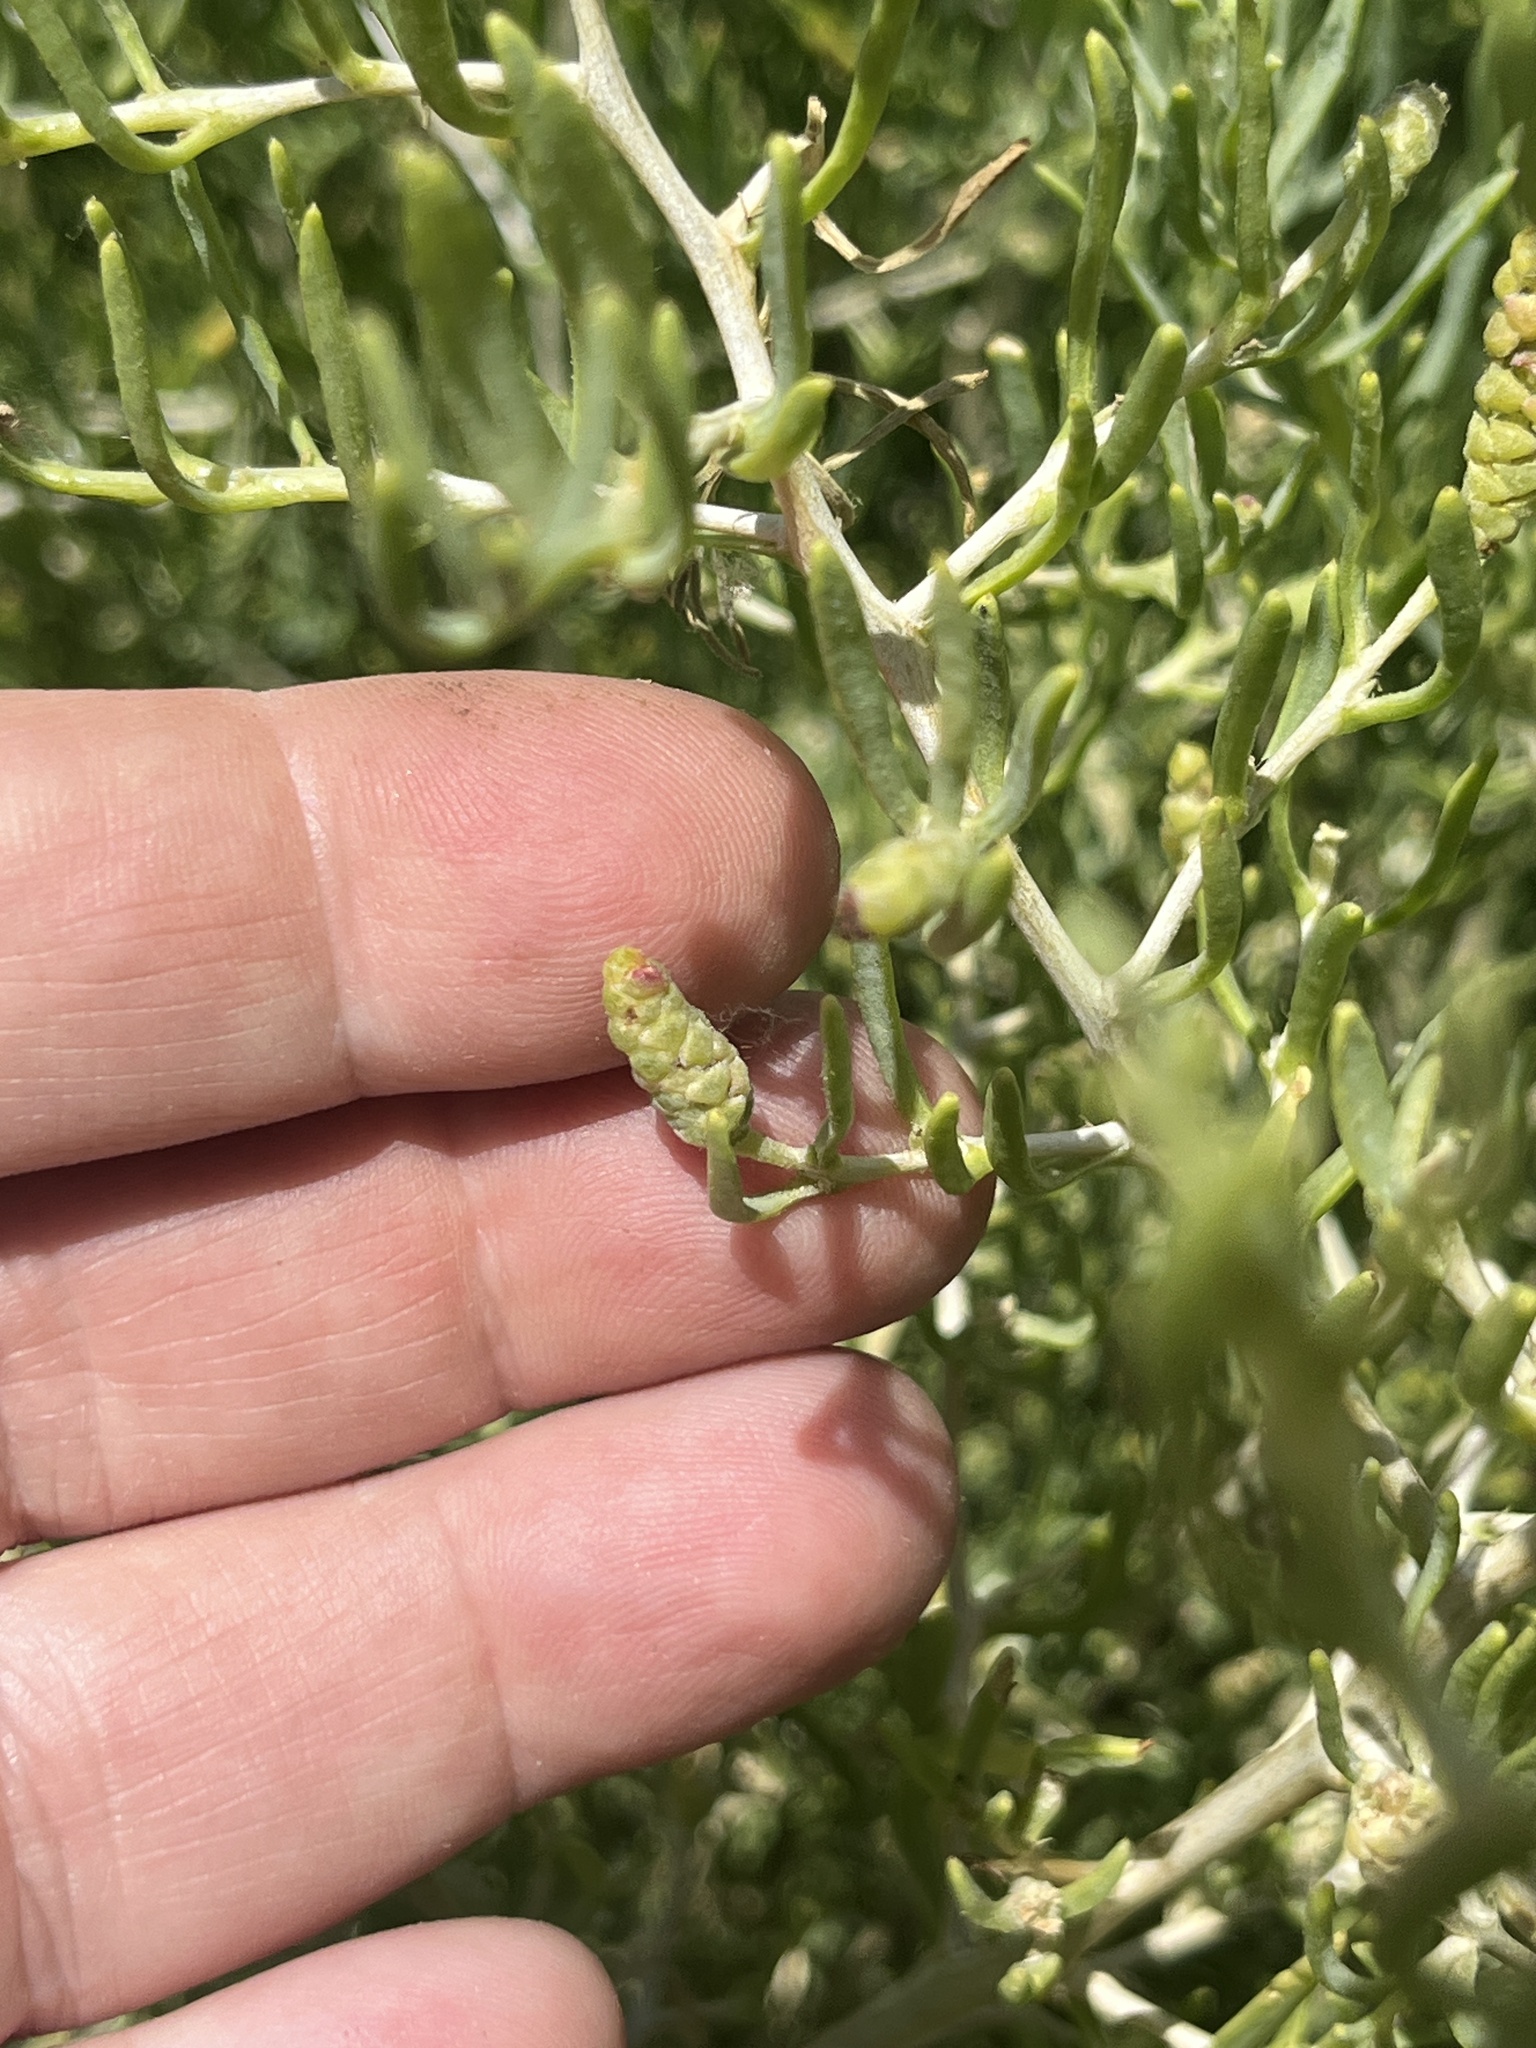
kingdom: Plantae
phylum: Tracheophyta
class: Magnoliopsida
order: Caryophyllales
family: Sarcobataceae
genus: Sarcobatus
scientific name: Sarcobatus vermiculatus
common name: Greasewood
